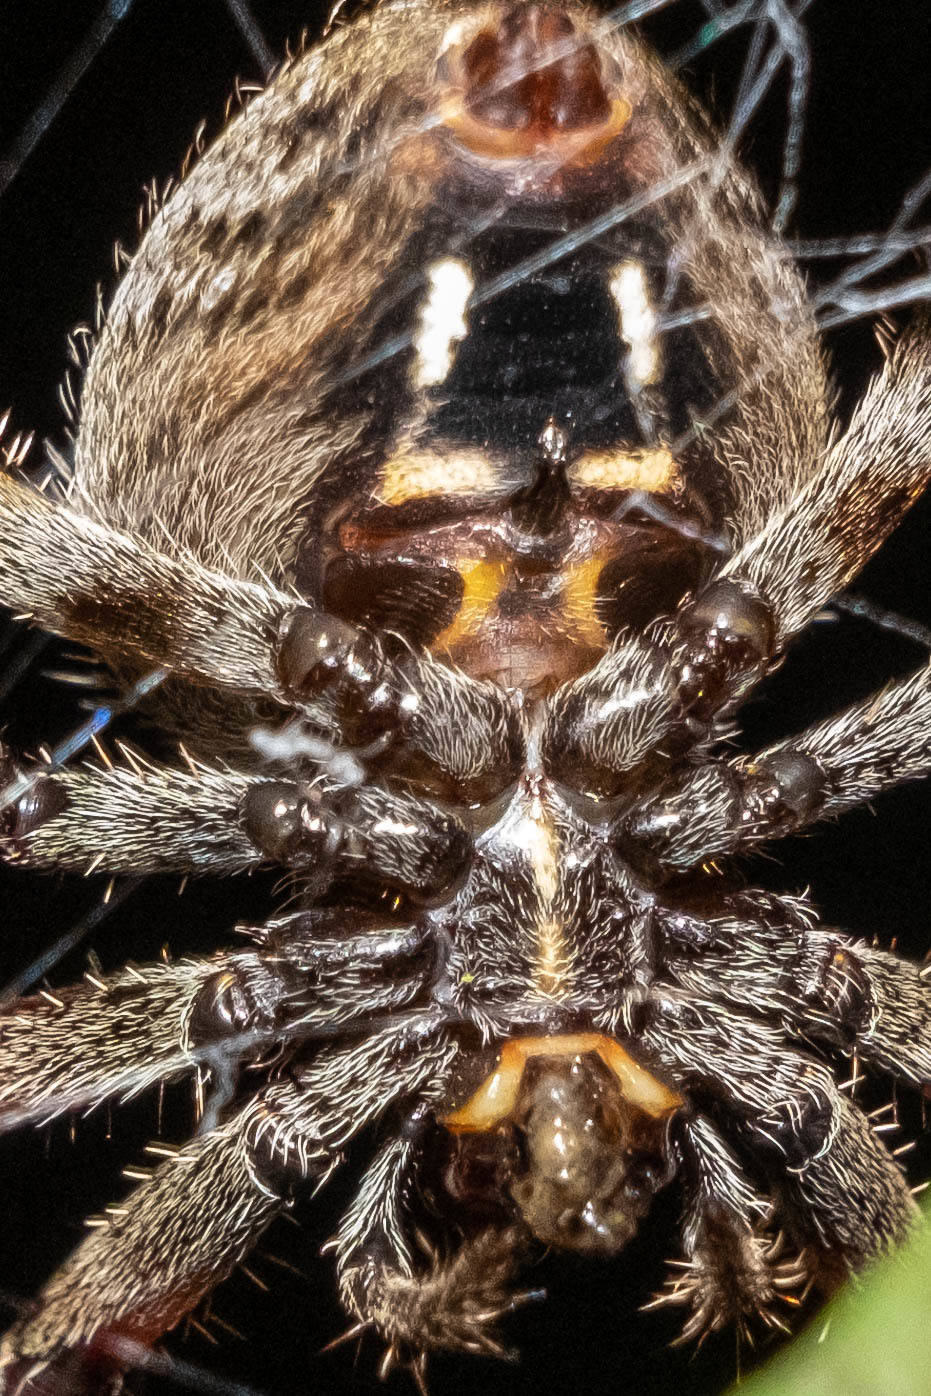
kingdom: Animalia
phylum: Arthropoda
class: Arachnida
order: Araneae
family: Araneidae
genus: Neoscona
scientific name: Neoscona crucifera
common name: Spotted orbweaver
